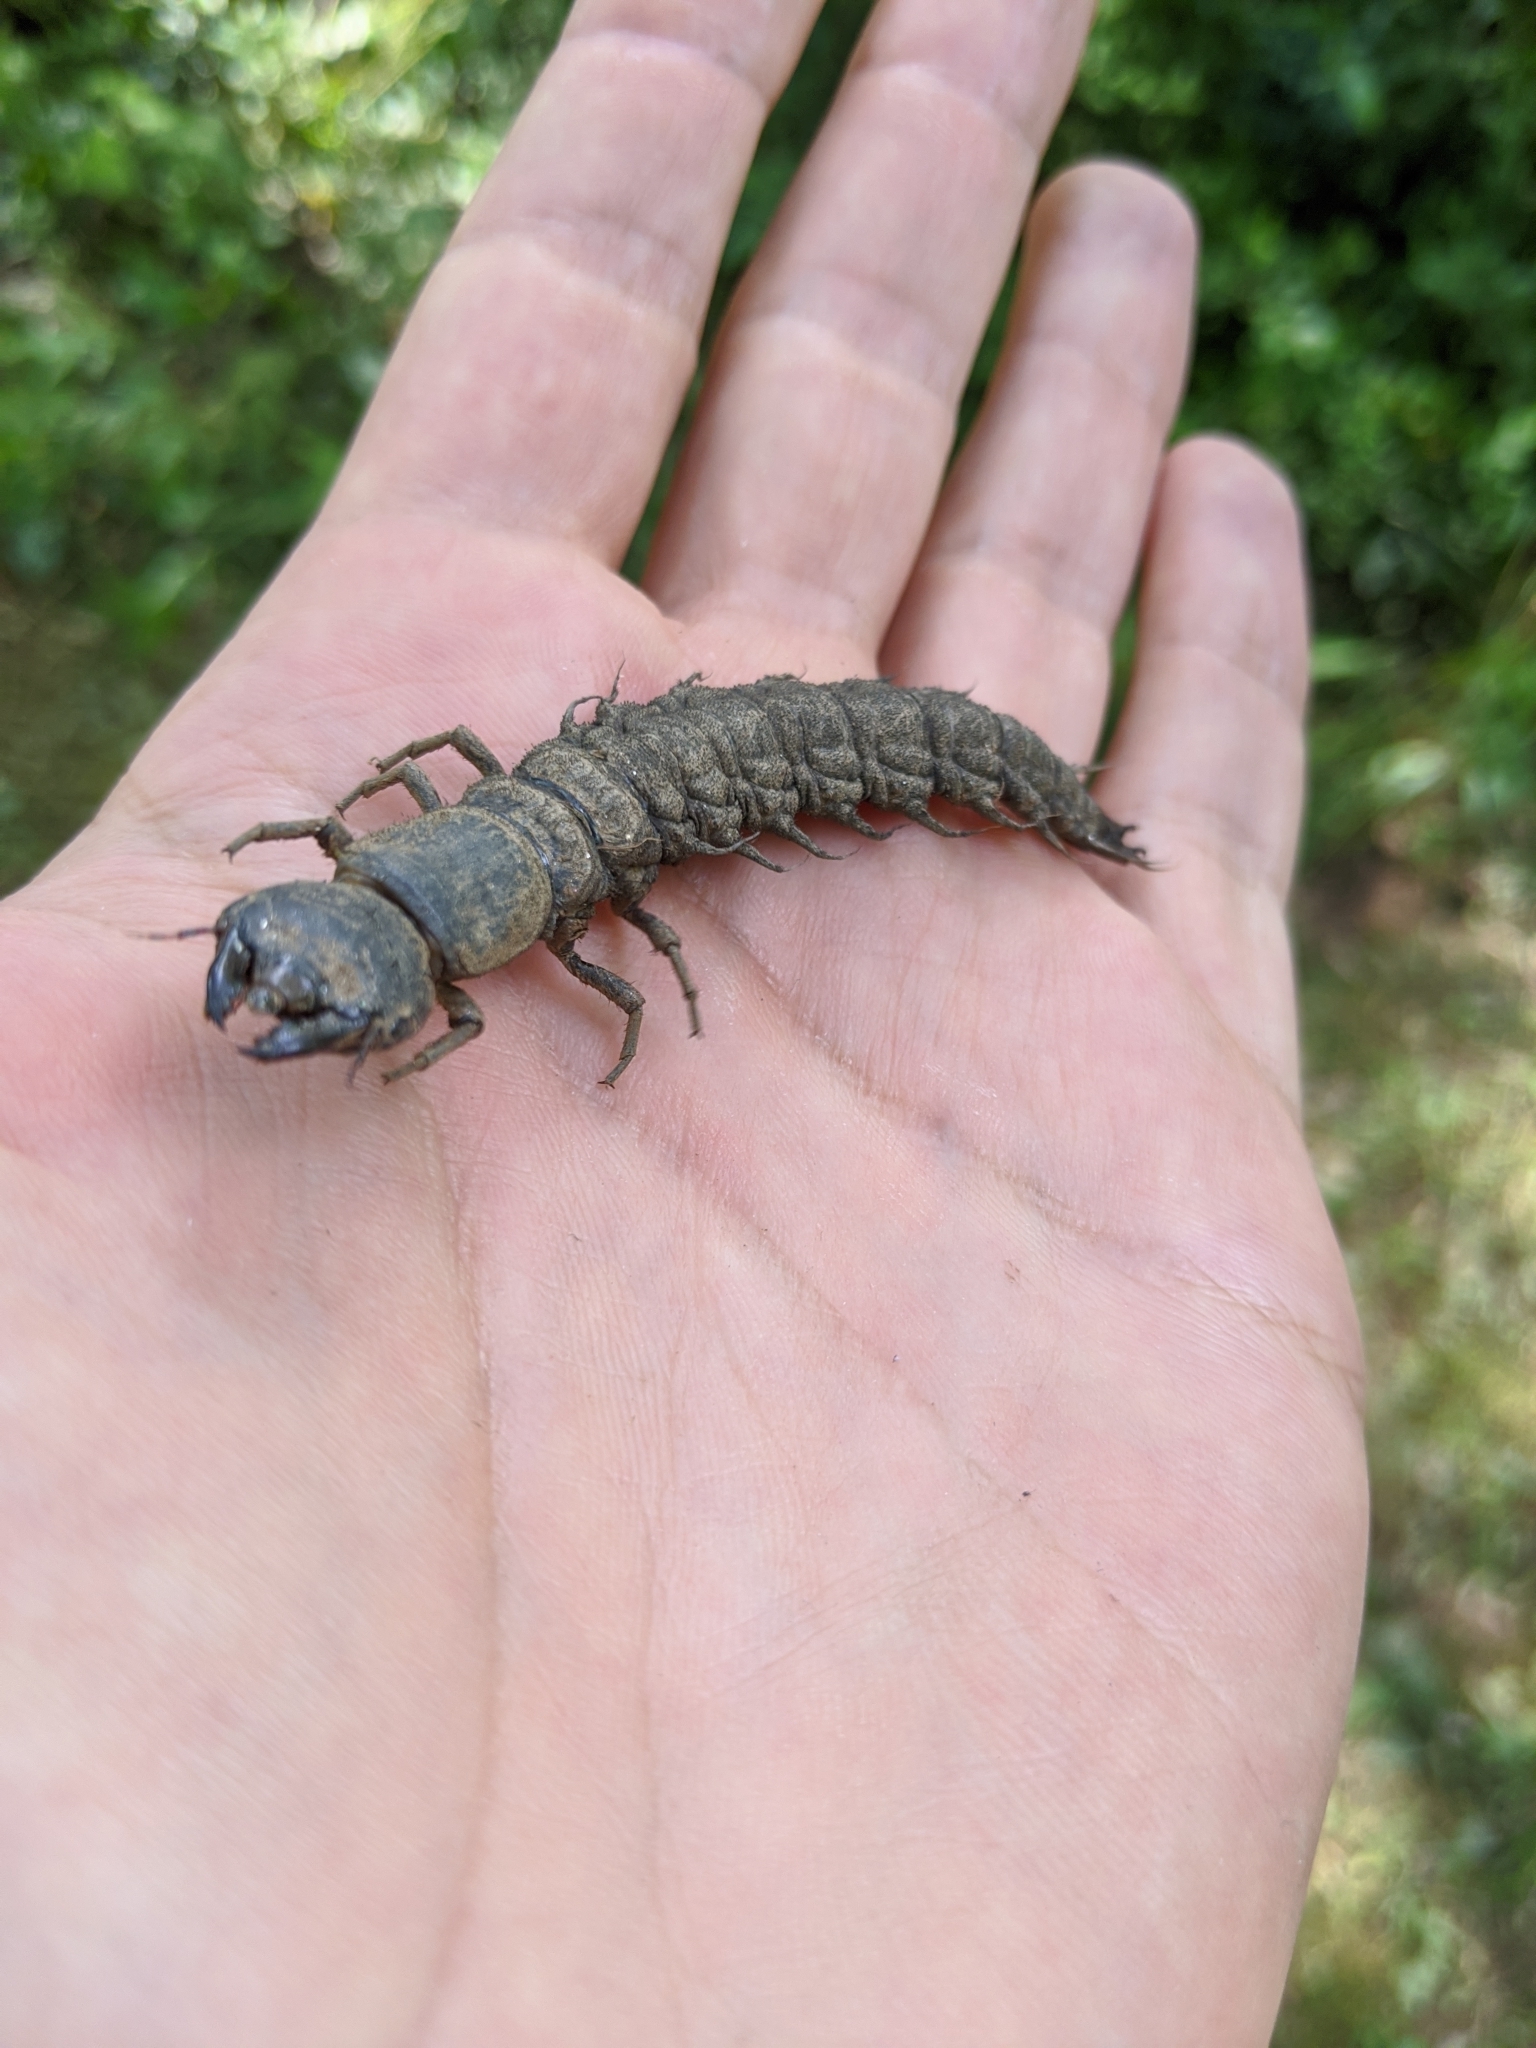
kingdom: Animalia
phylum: Arthropoda
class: Insecta
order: Megaloptera
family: Corydalidae
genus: Corydalus
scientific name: Corydalus cornutus
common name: Dobsonfly
